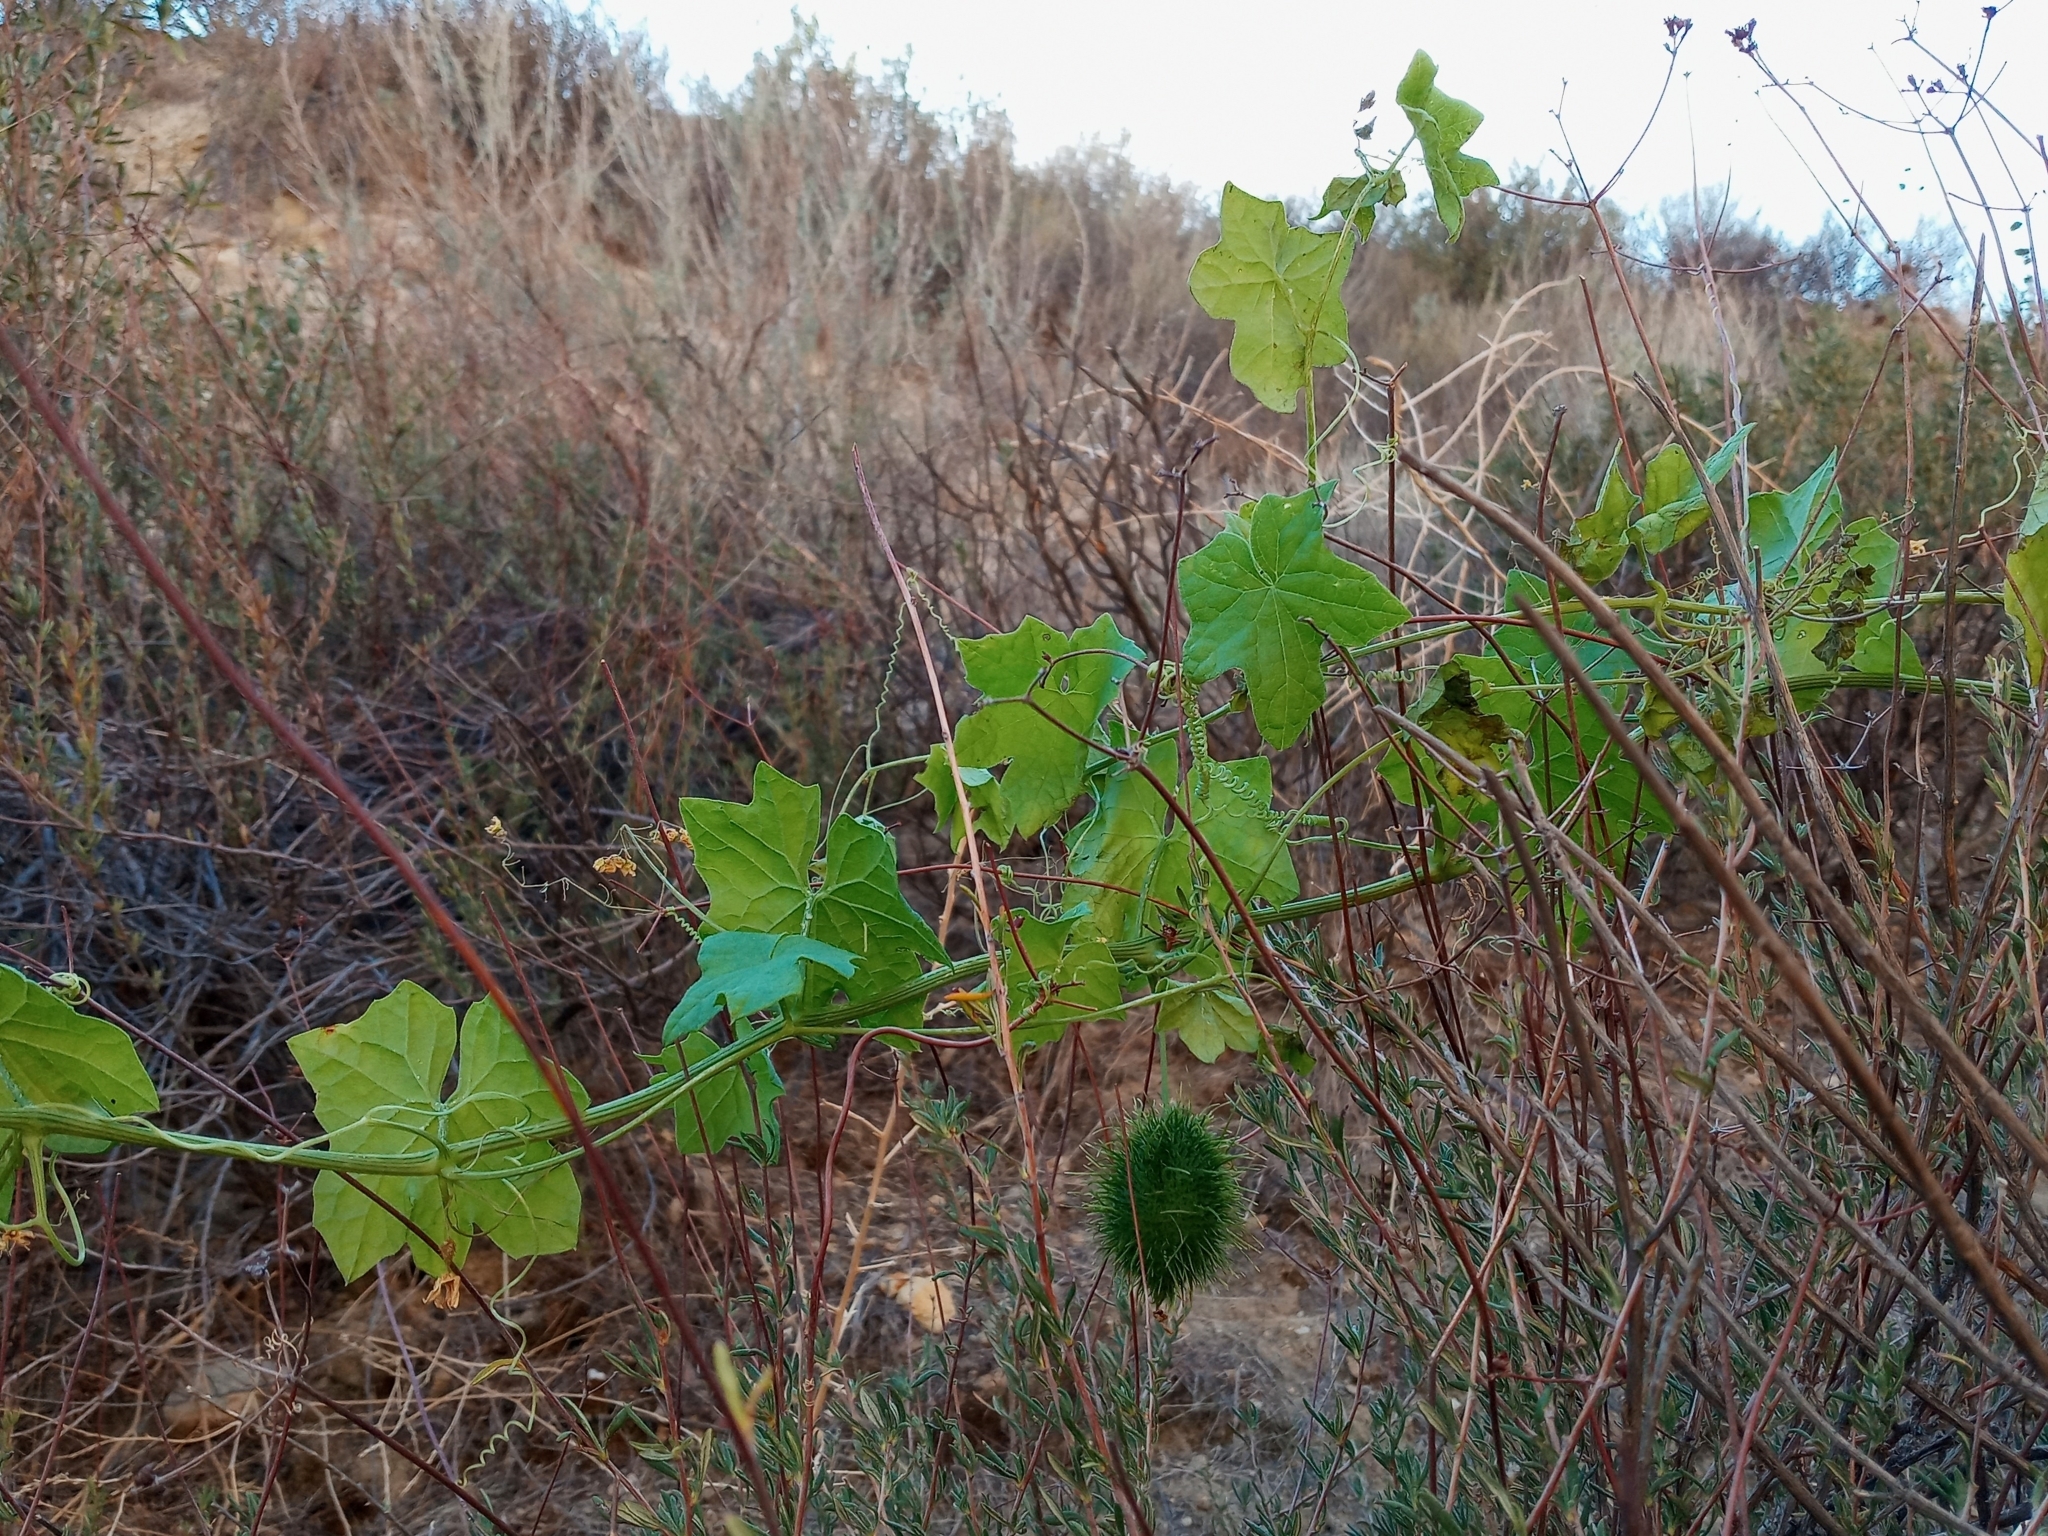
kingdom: Plantae
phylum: Tracheophyta
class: Magnoliopsida
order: Cucurbitales
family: Cucurbitaceae
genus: Marah
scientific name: Marah macrocarpa
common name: Cucamonga manroot
